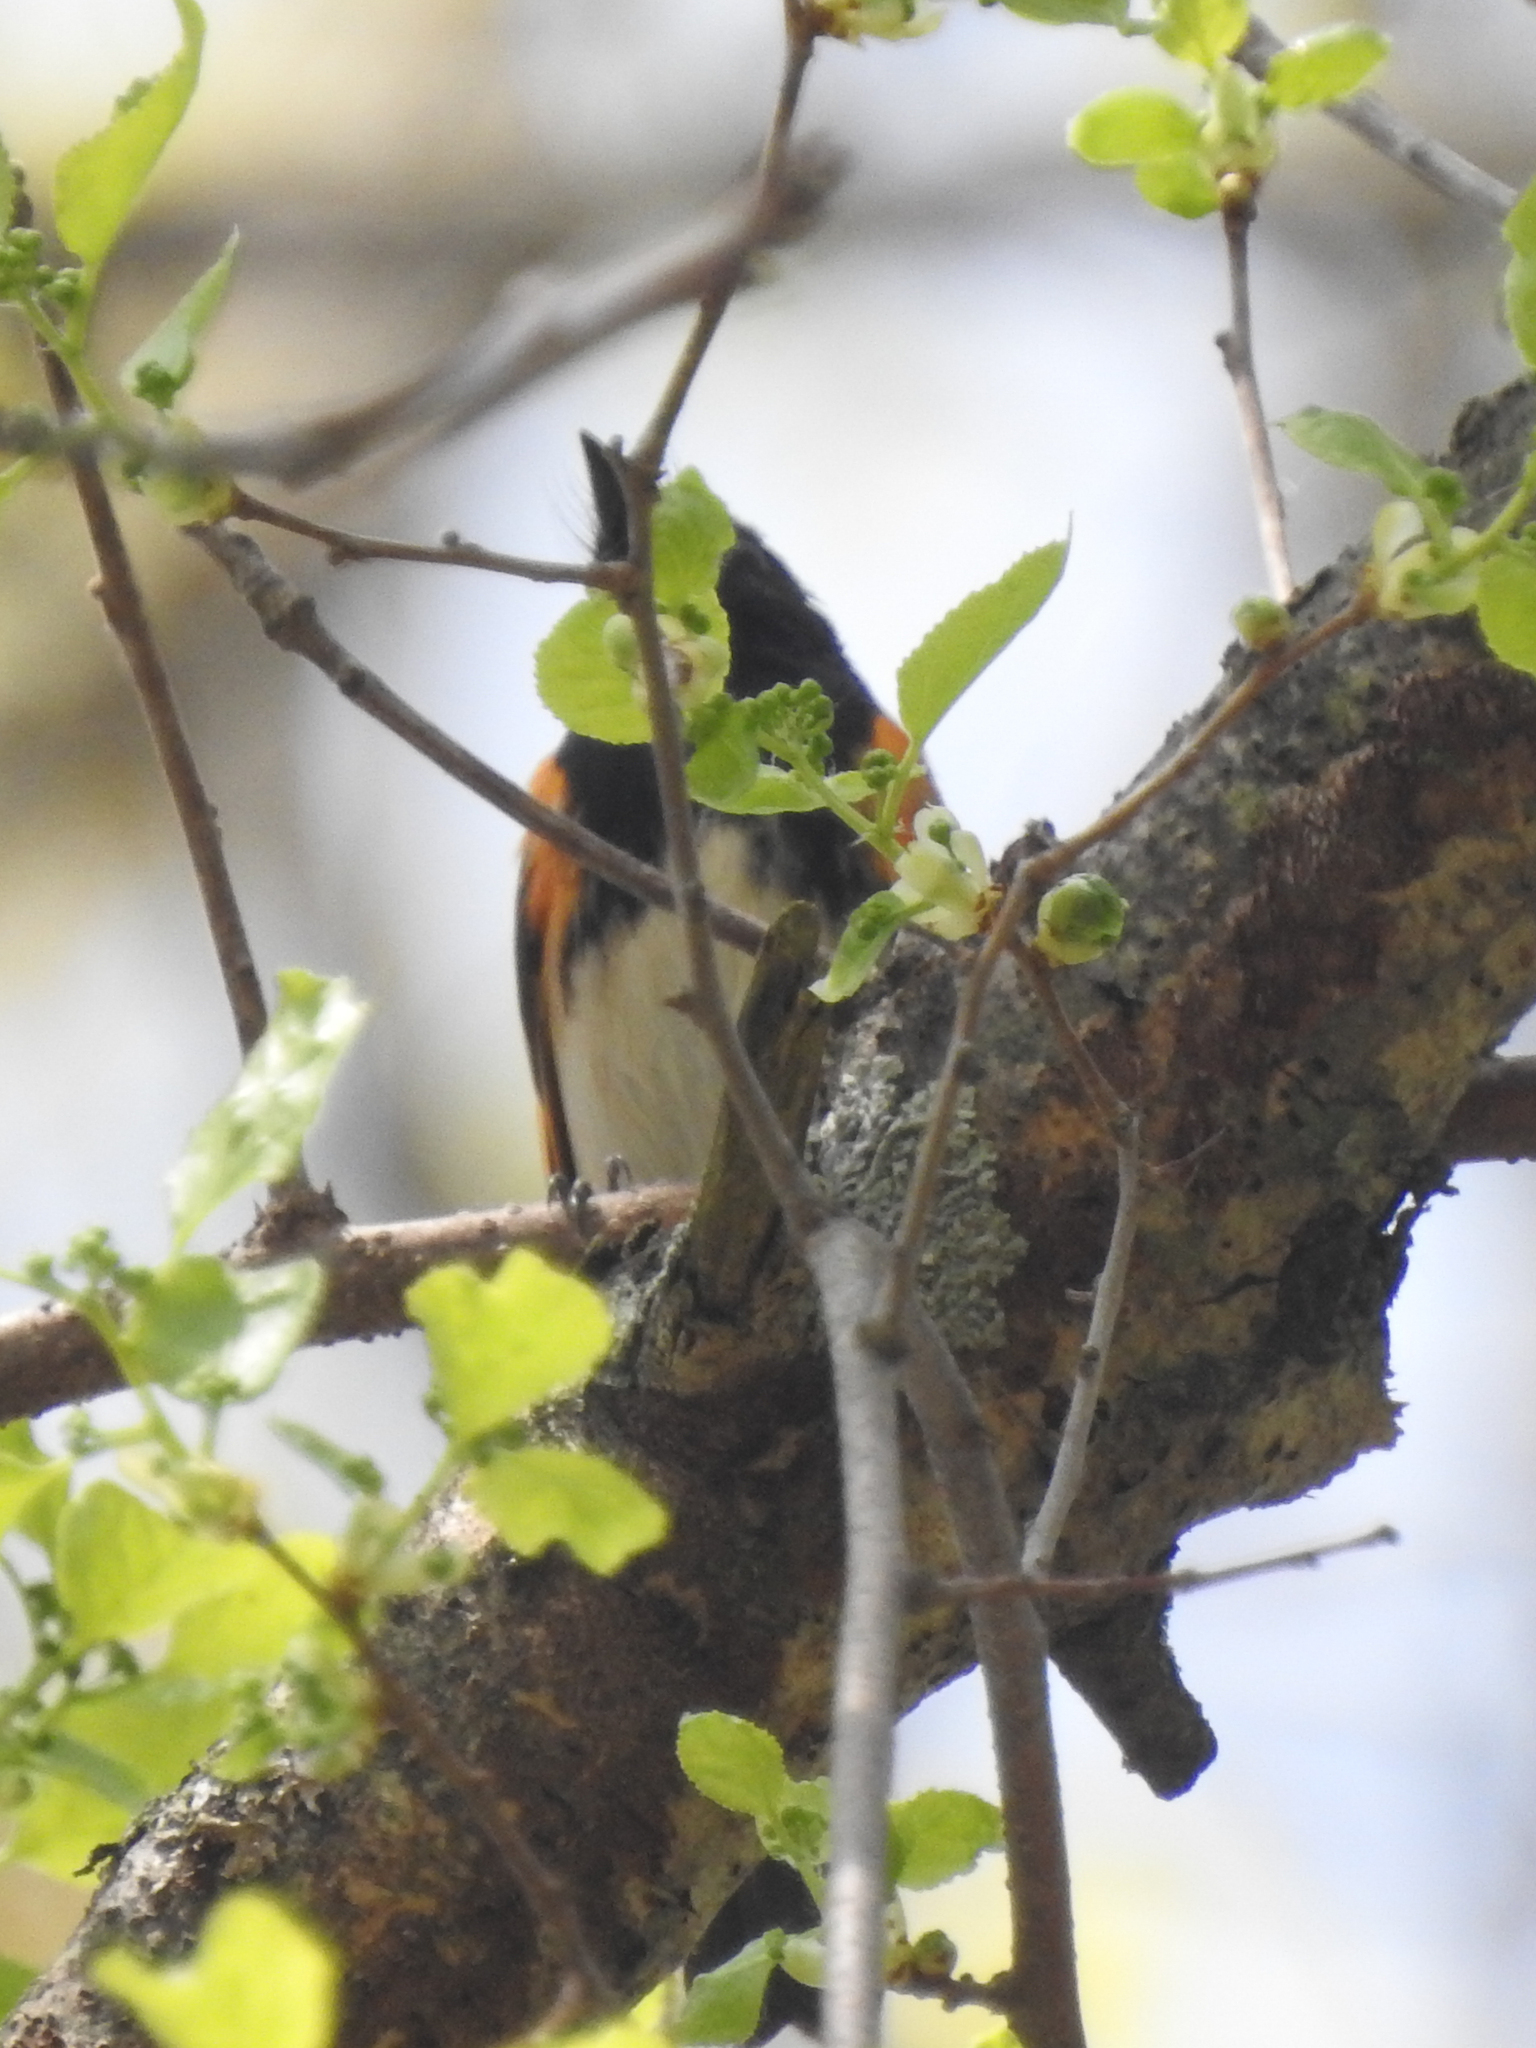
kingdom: Animalia
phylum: Chordata
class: Aves
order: Passeriformes
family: Parulidae
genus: Setophaga
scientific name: Setophaga ruticilla
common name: American redstart
